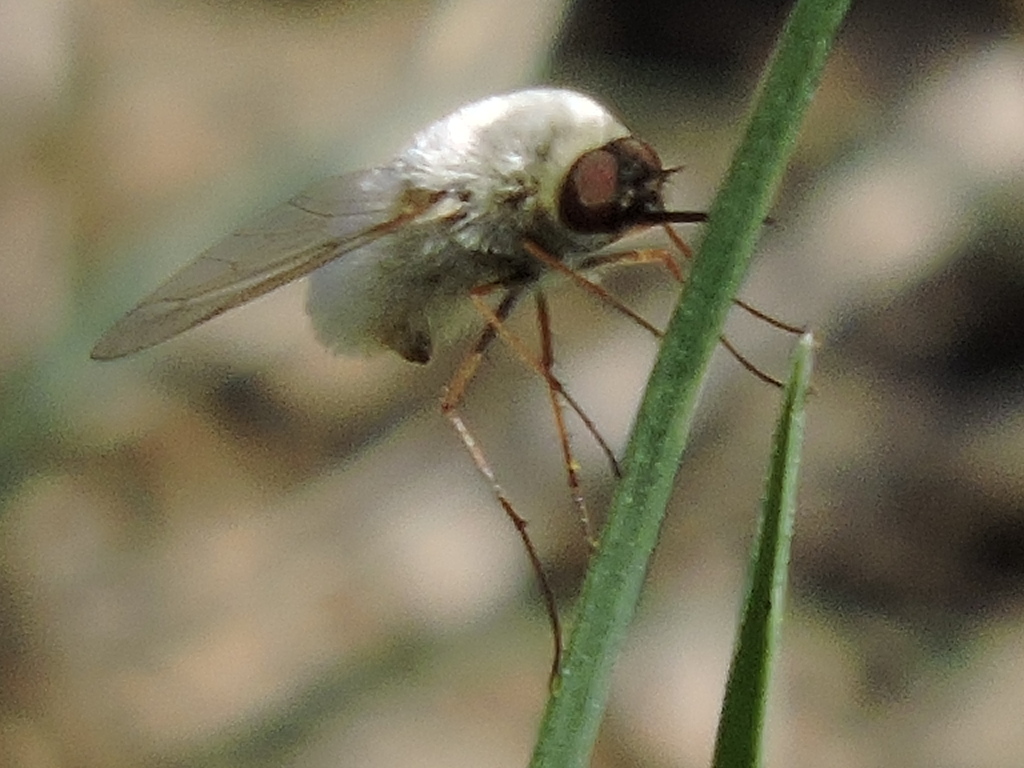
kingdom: Animalia
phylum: Arthropoda
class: Insecta
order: Diptera
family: Bombyliidae
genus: Systoechus
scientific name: Systoechus candidulus
